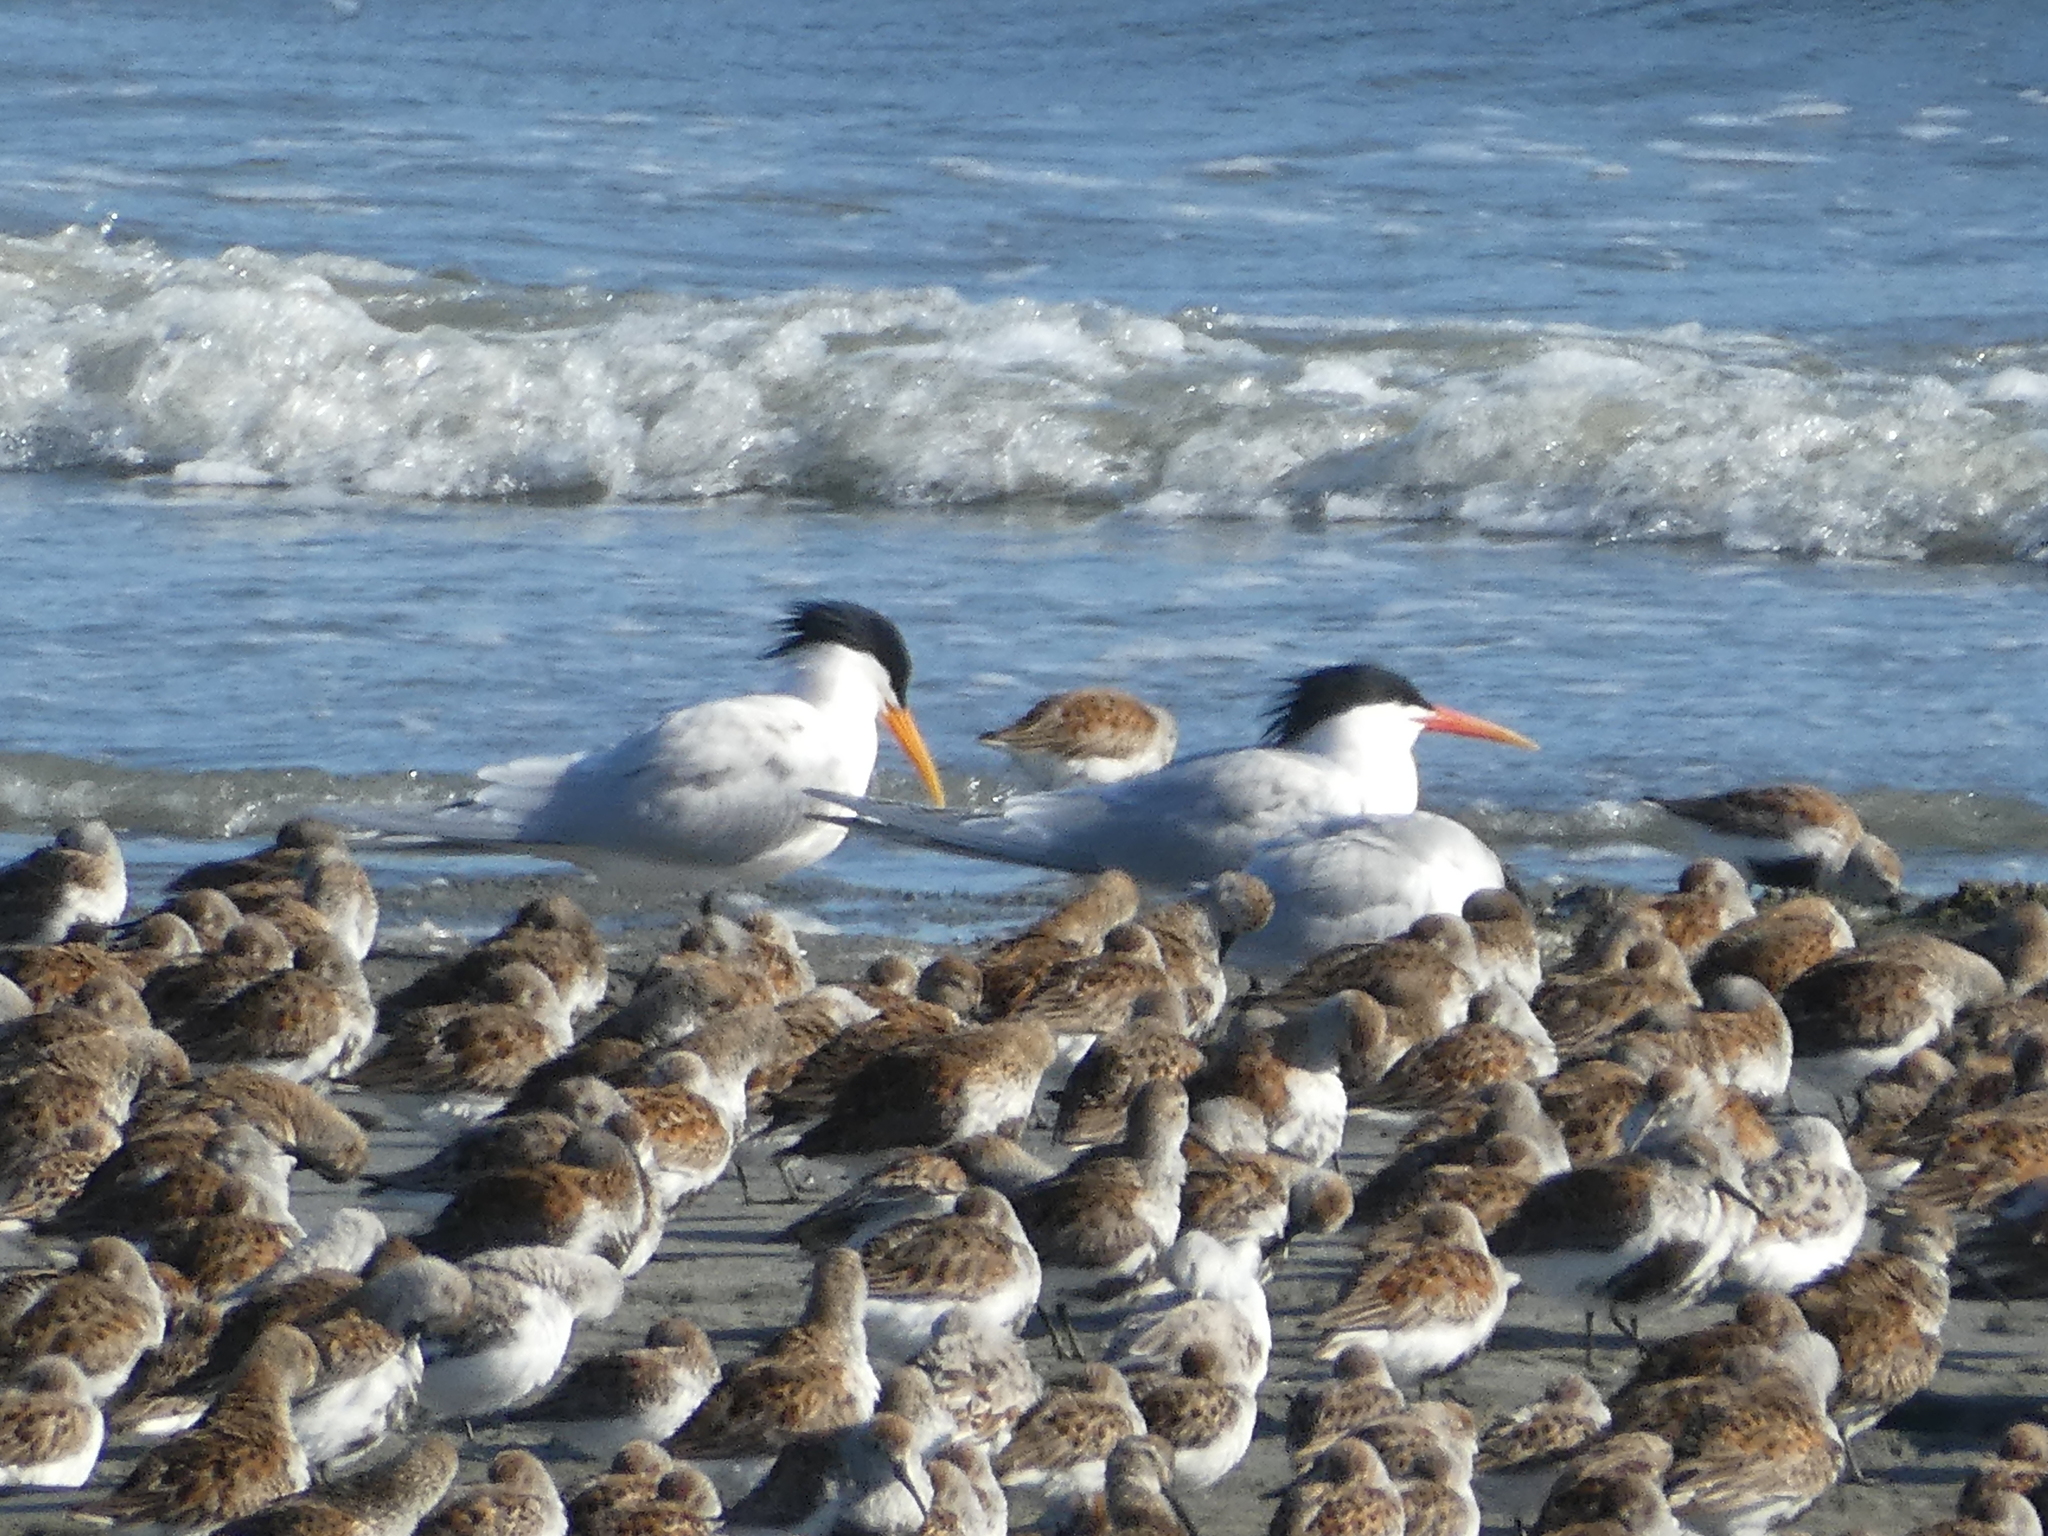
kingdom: Animalia
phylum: Chordata
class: Aves
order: Charadriiformes
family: Laridae
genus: Thalasseus
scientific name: Thalasseus elegans
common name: Elegant tern
